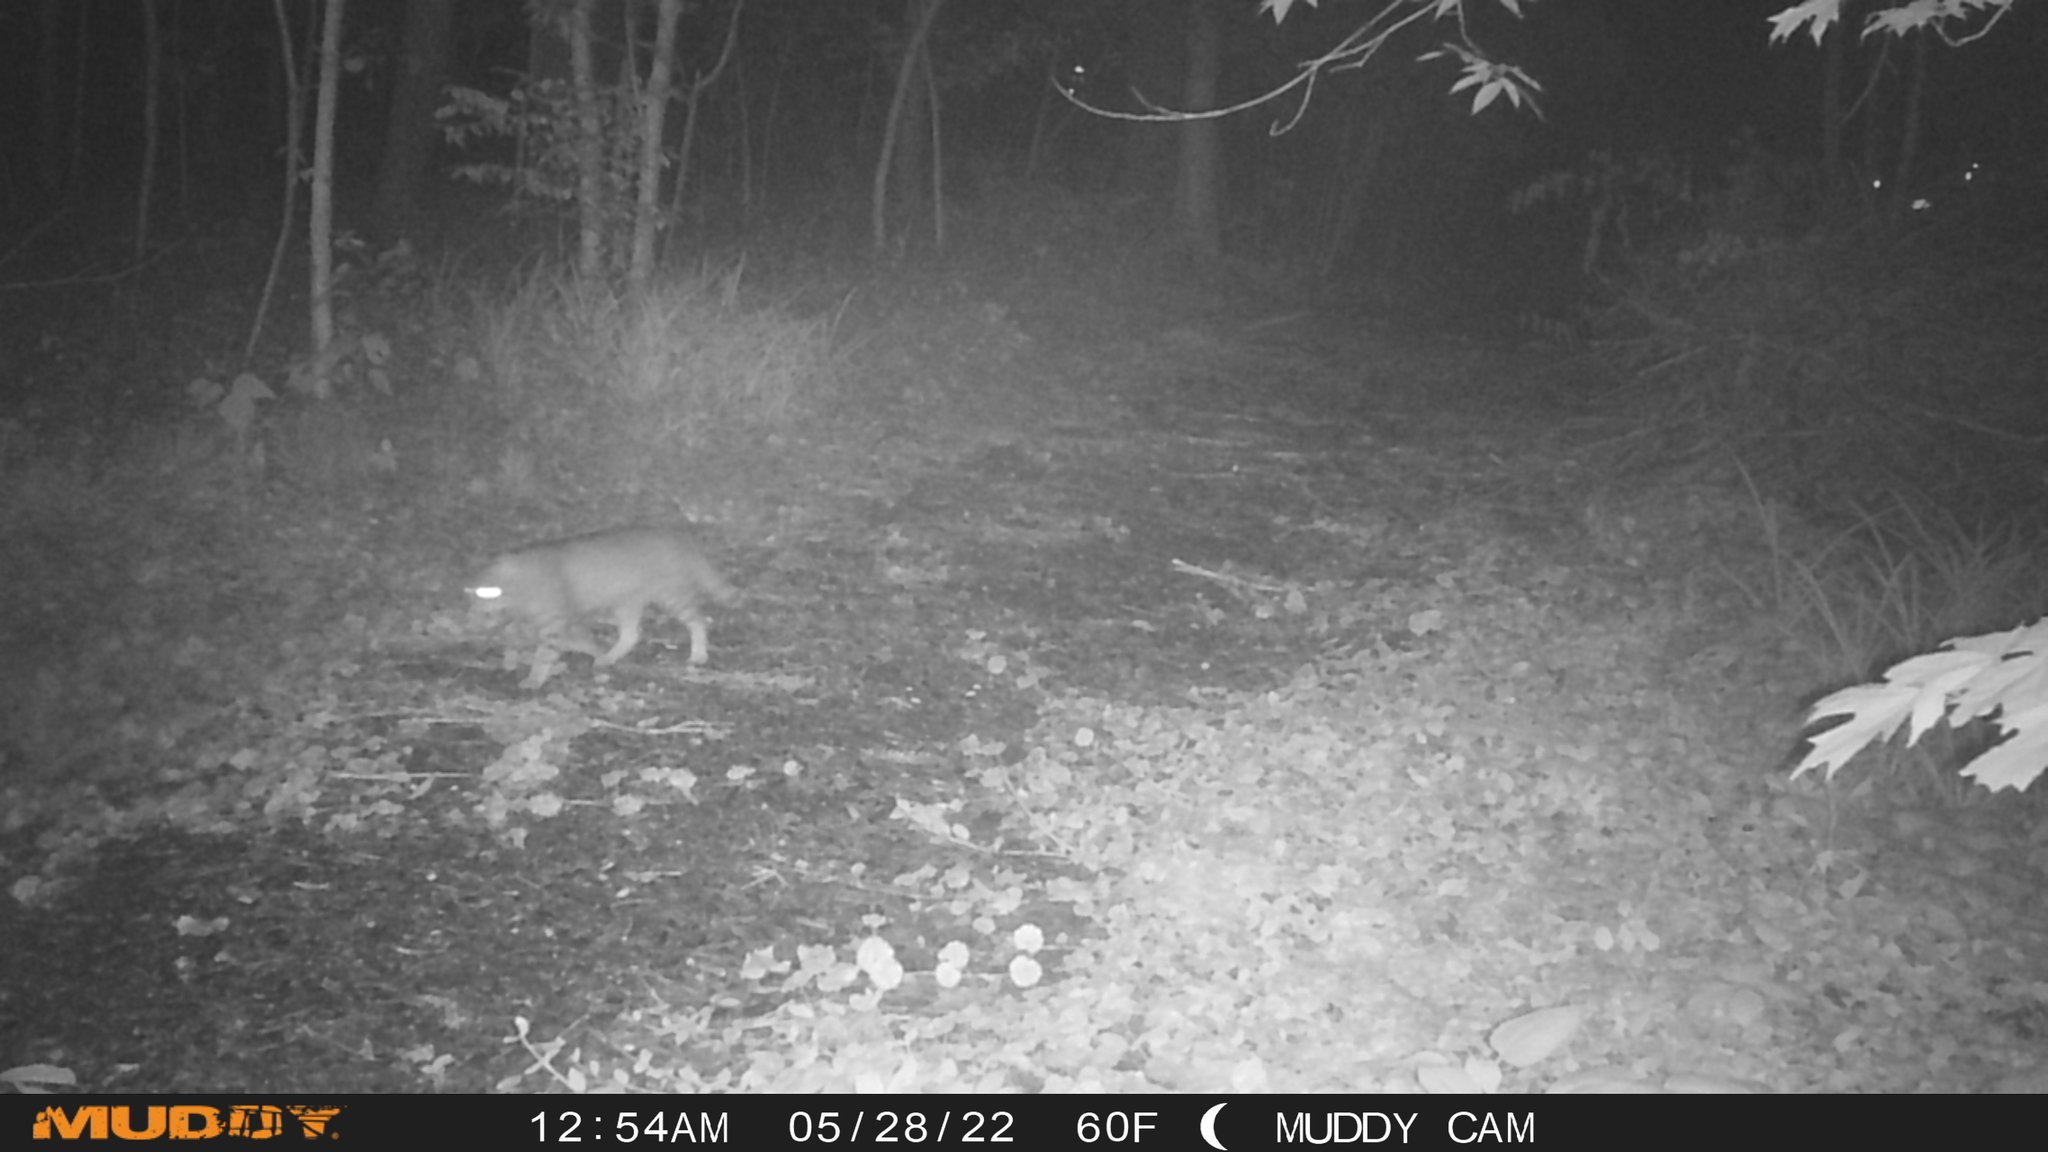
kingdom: Animalia
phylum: Chordata
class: Mammalia
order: Carnivora
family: Felidae
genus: Felis
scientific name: Felis catus
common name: Domestic cat
